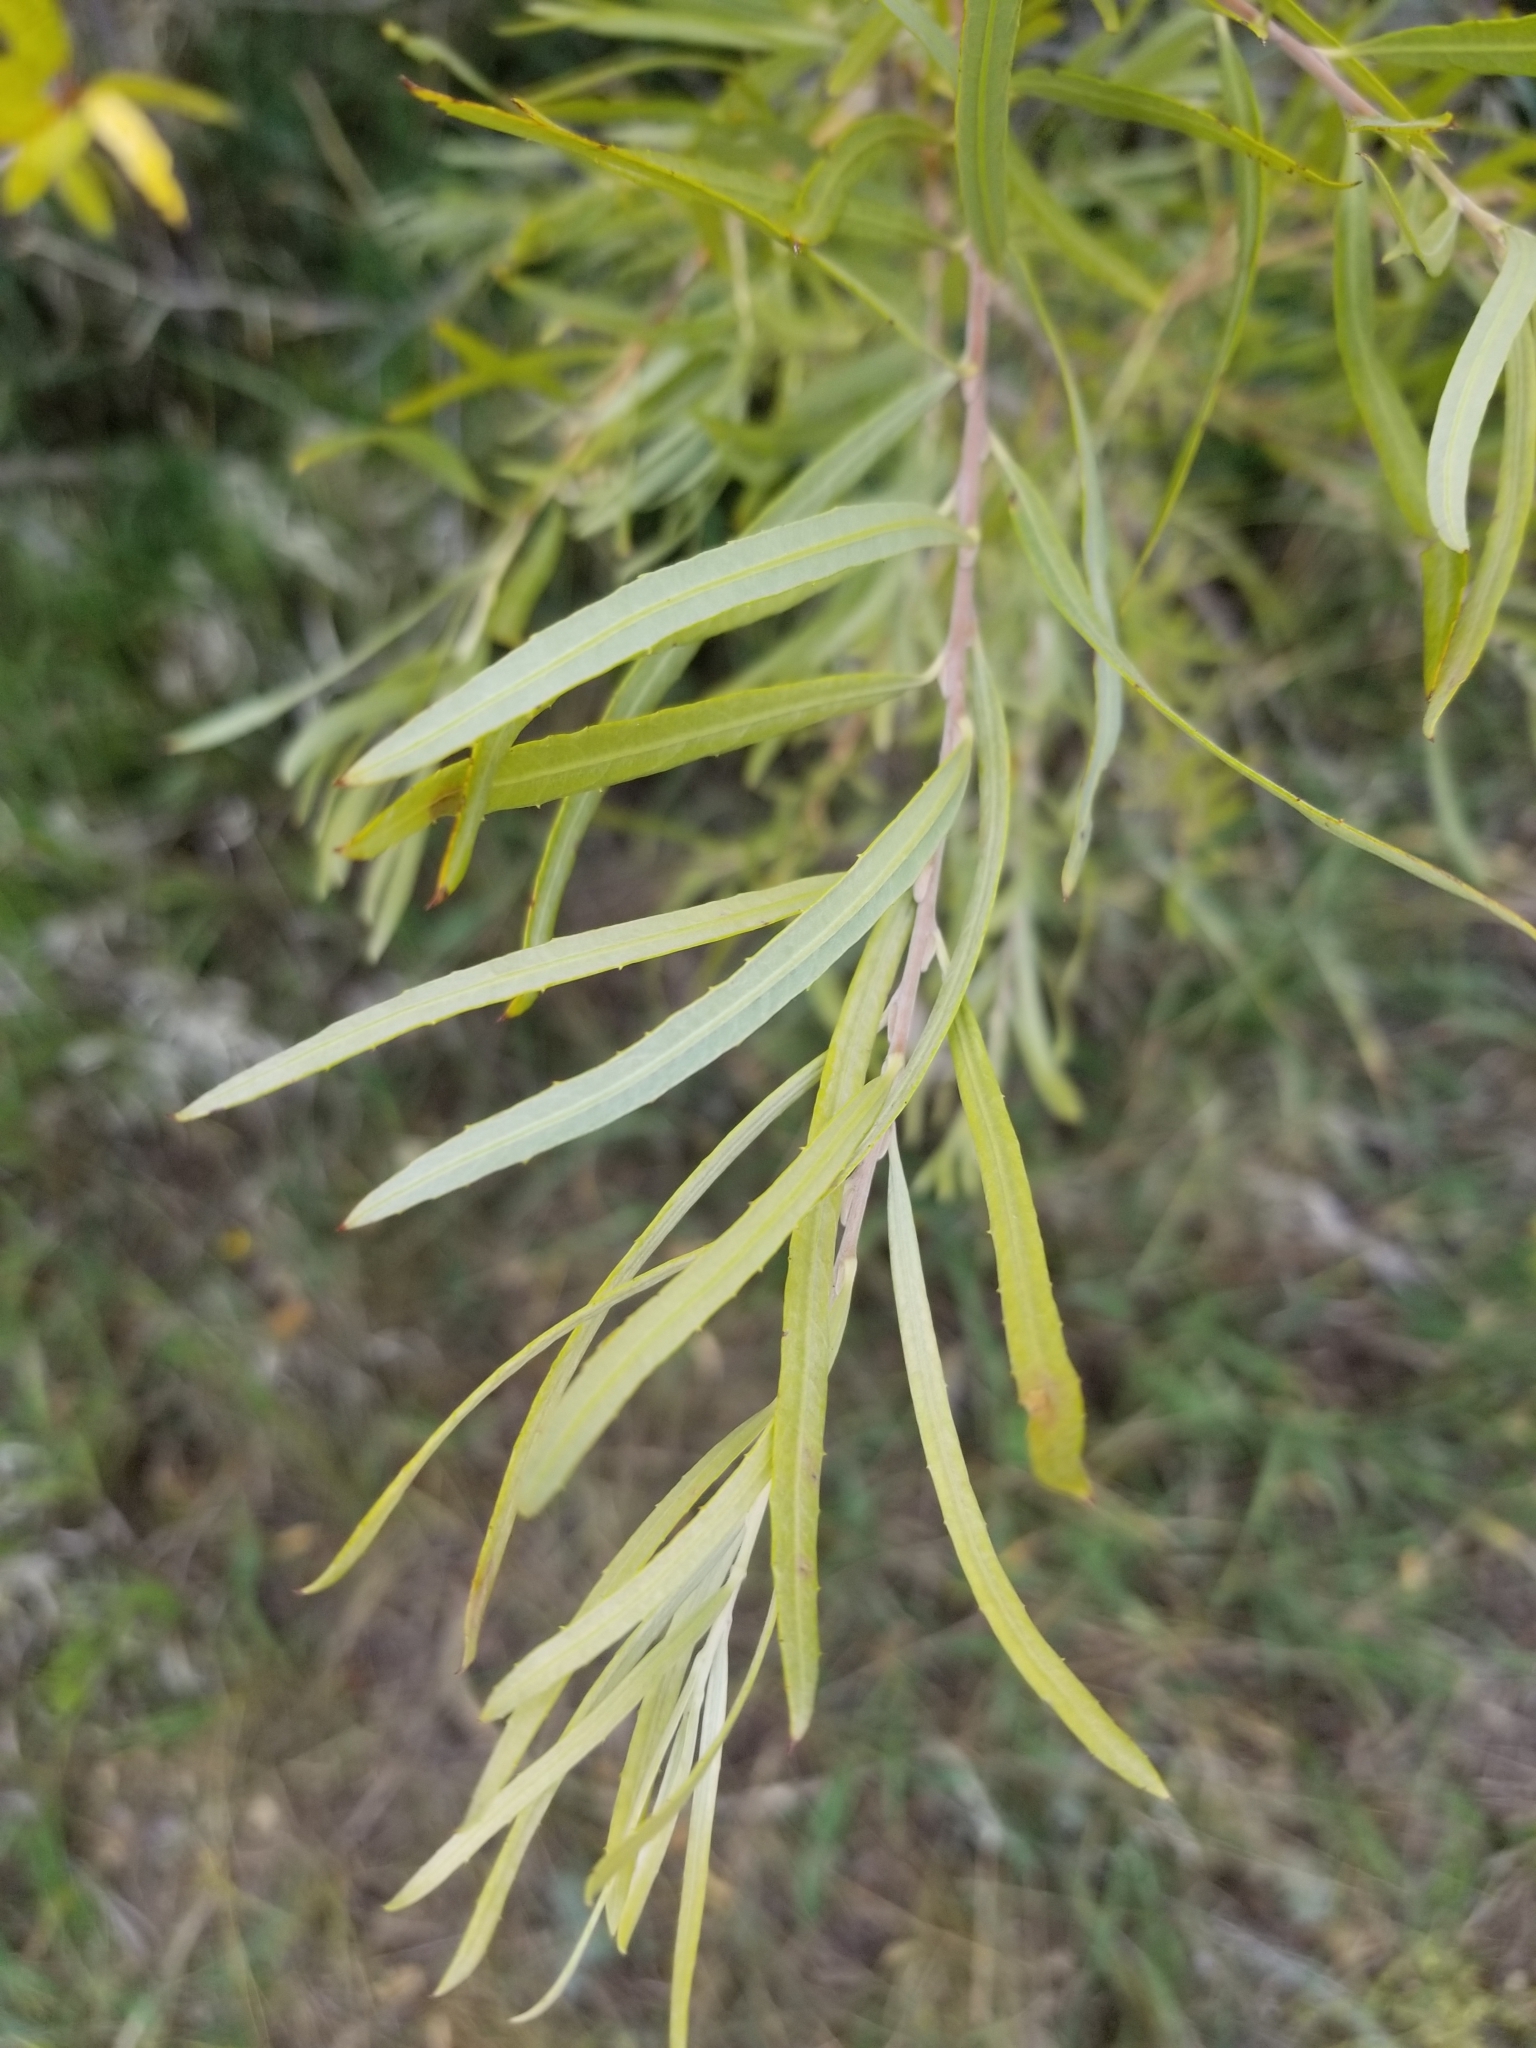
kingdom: Plantae
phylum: Tracheophyta
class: Magnoliopsida
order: Malpighiales
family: Salicaceae
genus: Salix
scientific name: Salix exigua
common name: Coyote willow
